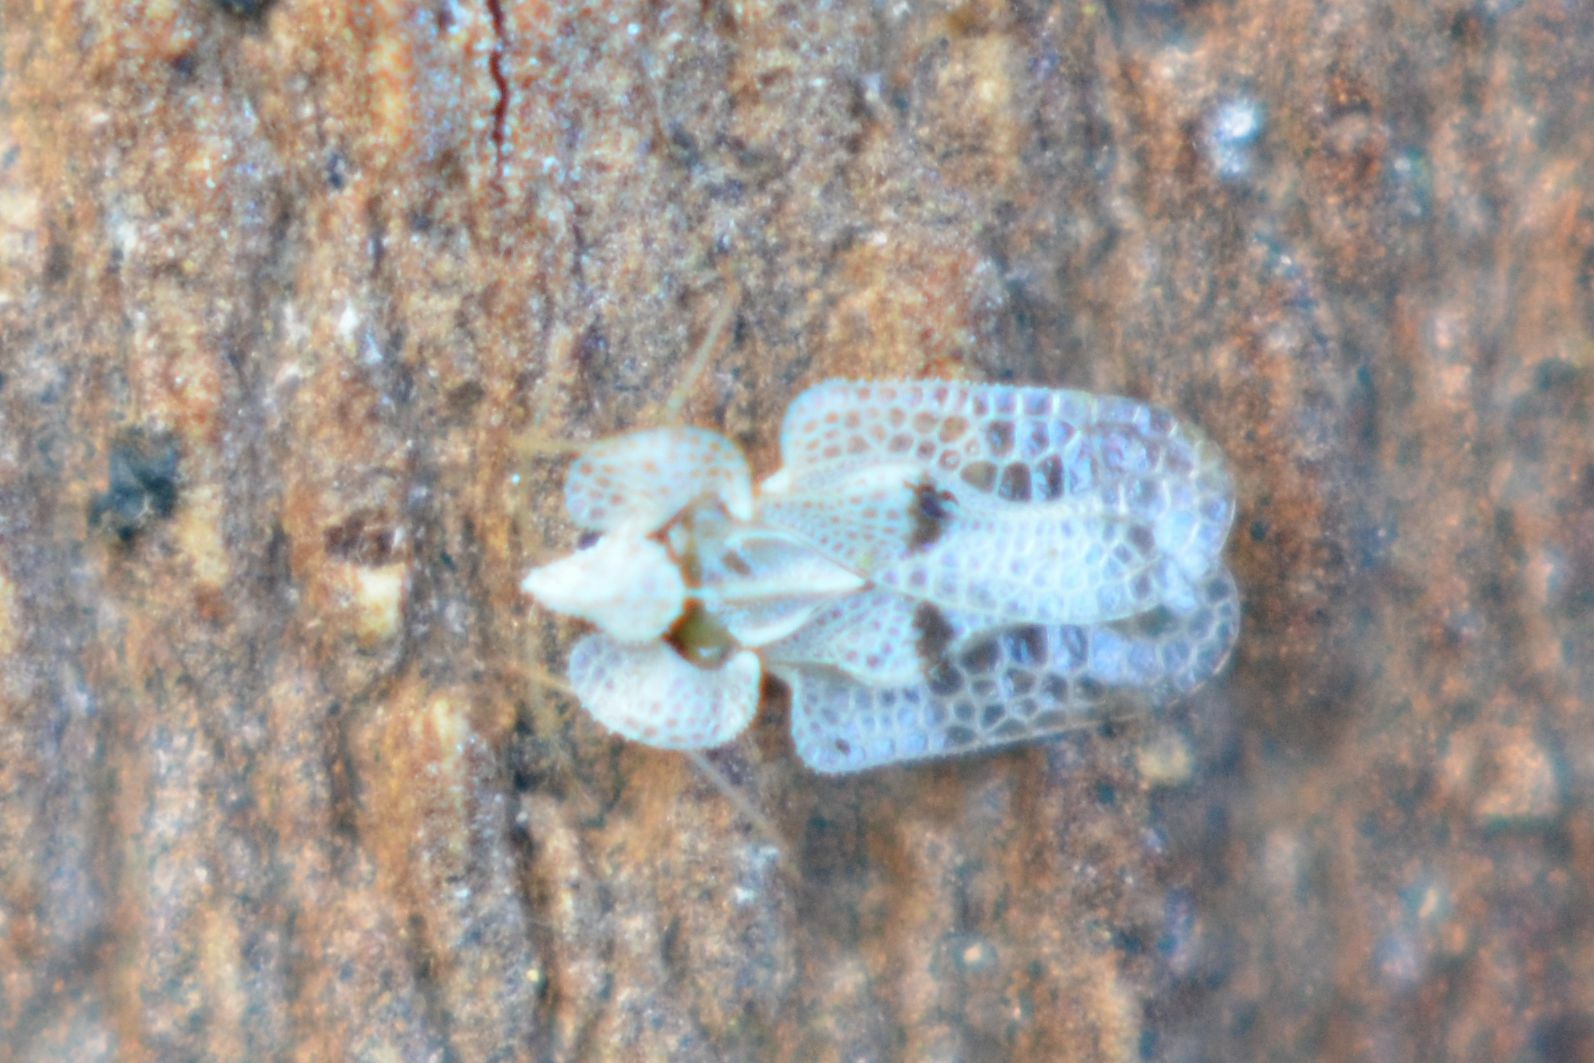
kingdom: Animalia
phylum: Arthropoda
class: Insecta
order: Hemiptera
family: Tingidae
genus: Corythucha
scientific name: Corythucha ciliata
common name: Sycamore lace bug
